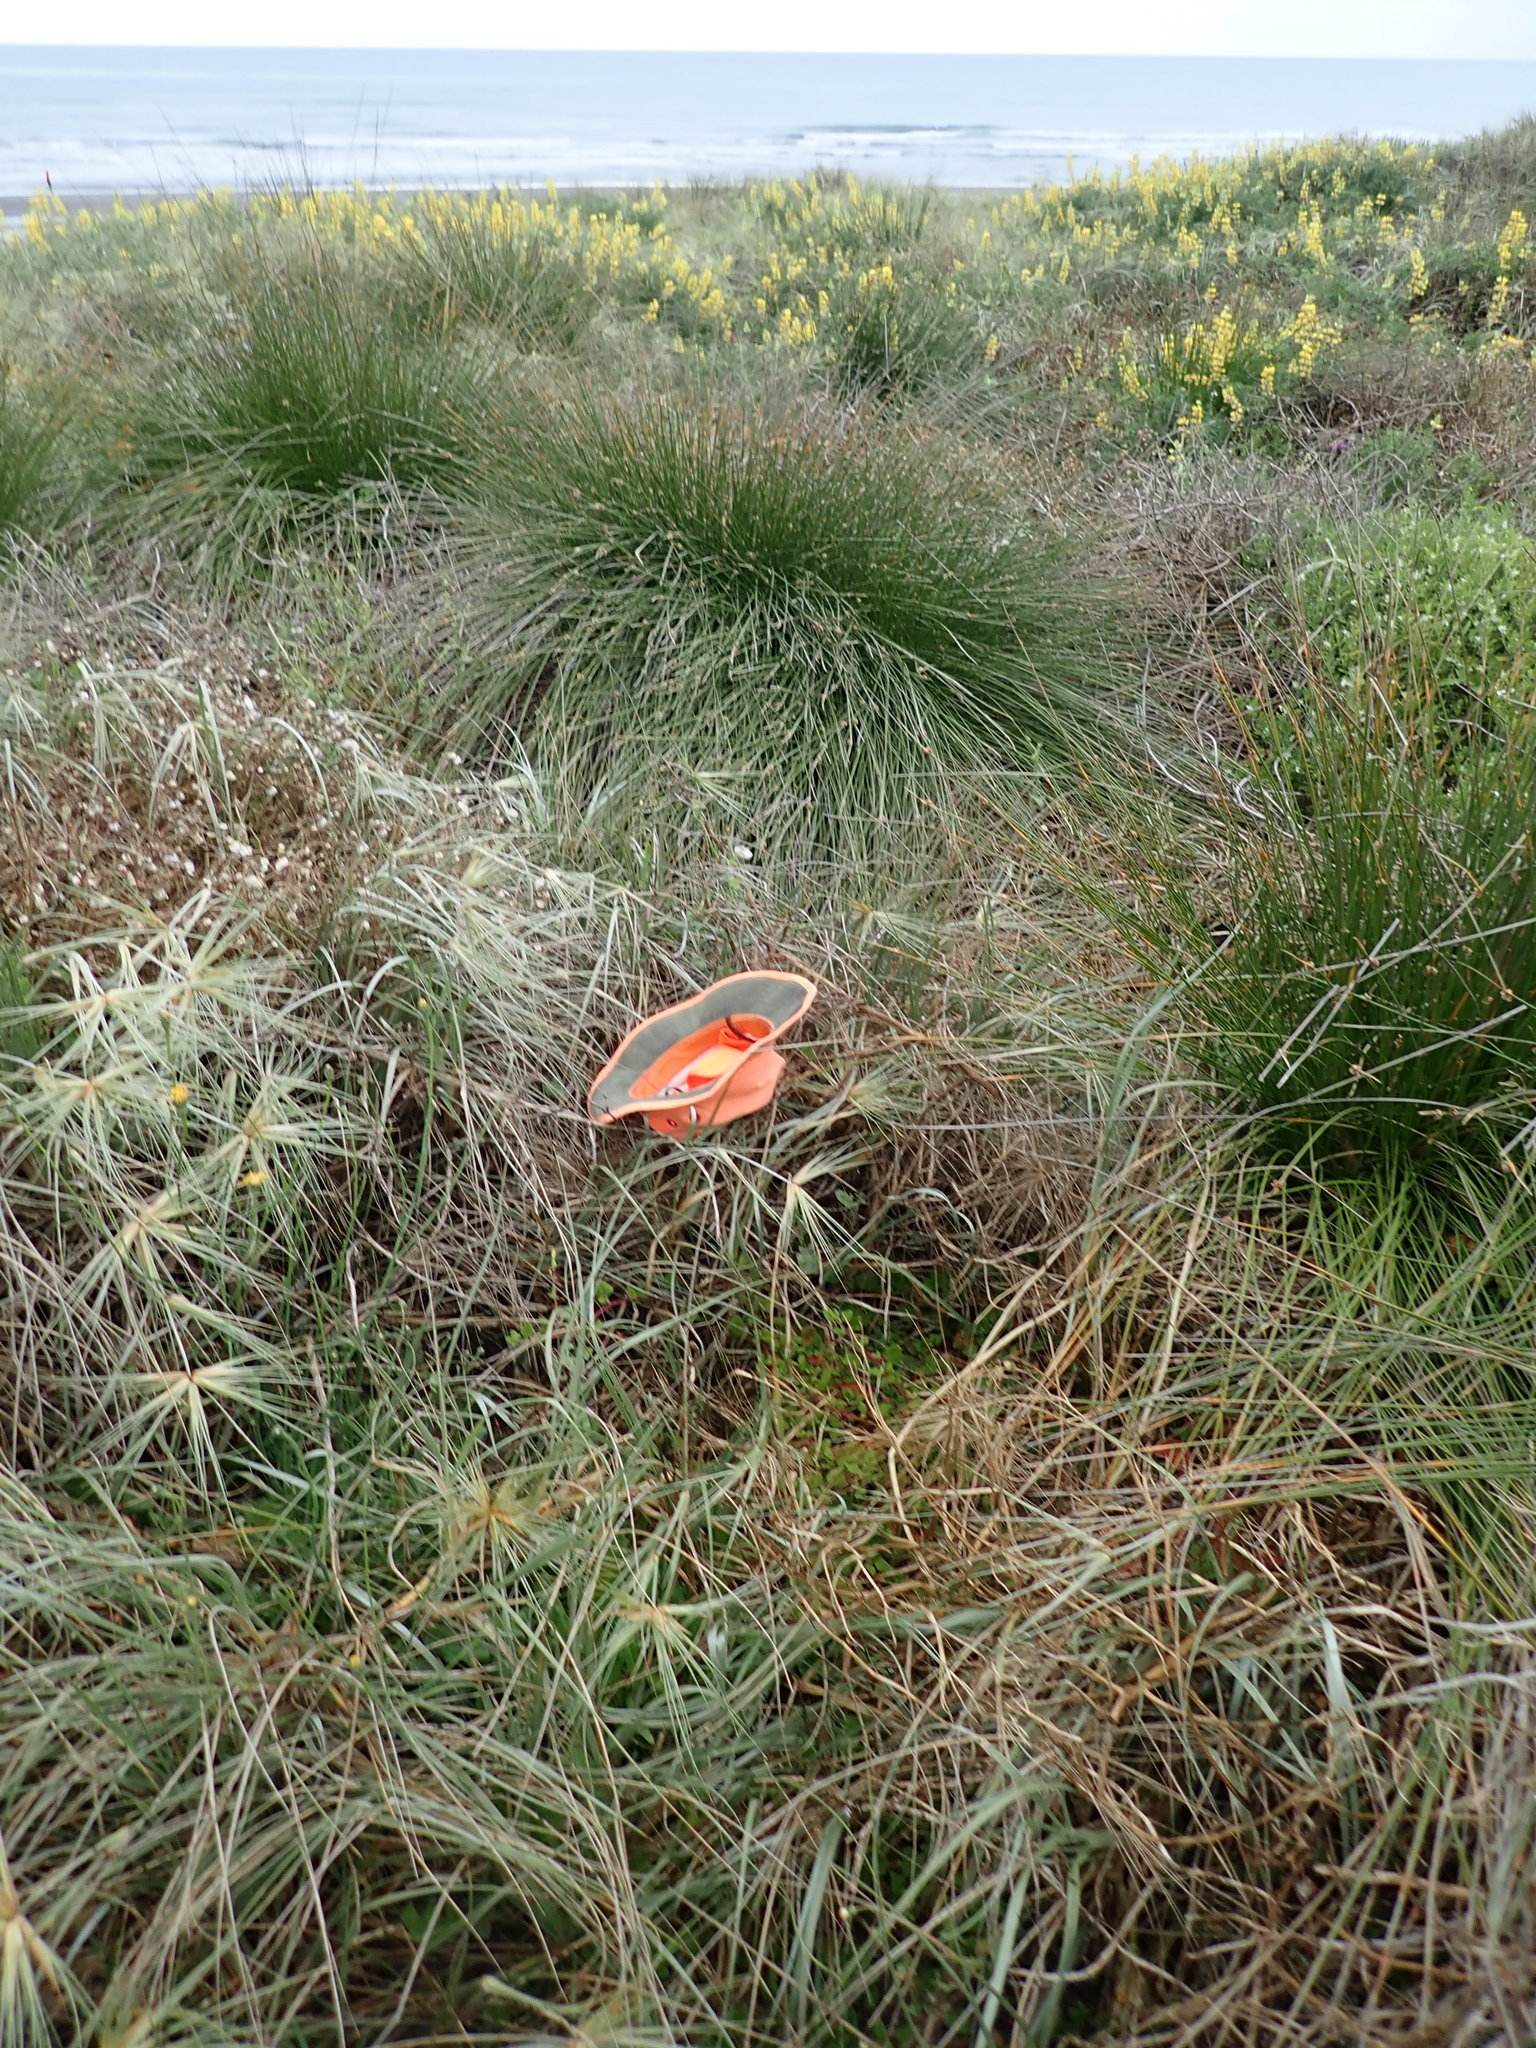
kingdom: Plantae
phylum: Tracheophyta
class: Magnoliopsida
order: Caryophyllales
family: Aizoaceae
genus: Tetragonia
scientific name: Tetragonia implexicoma
